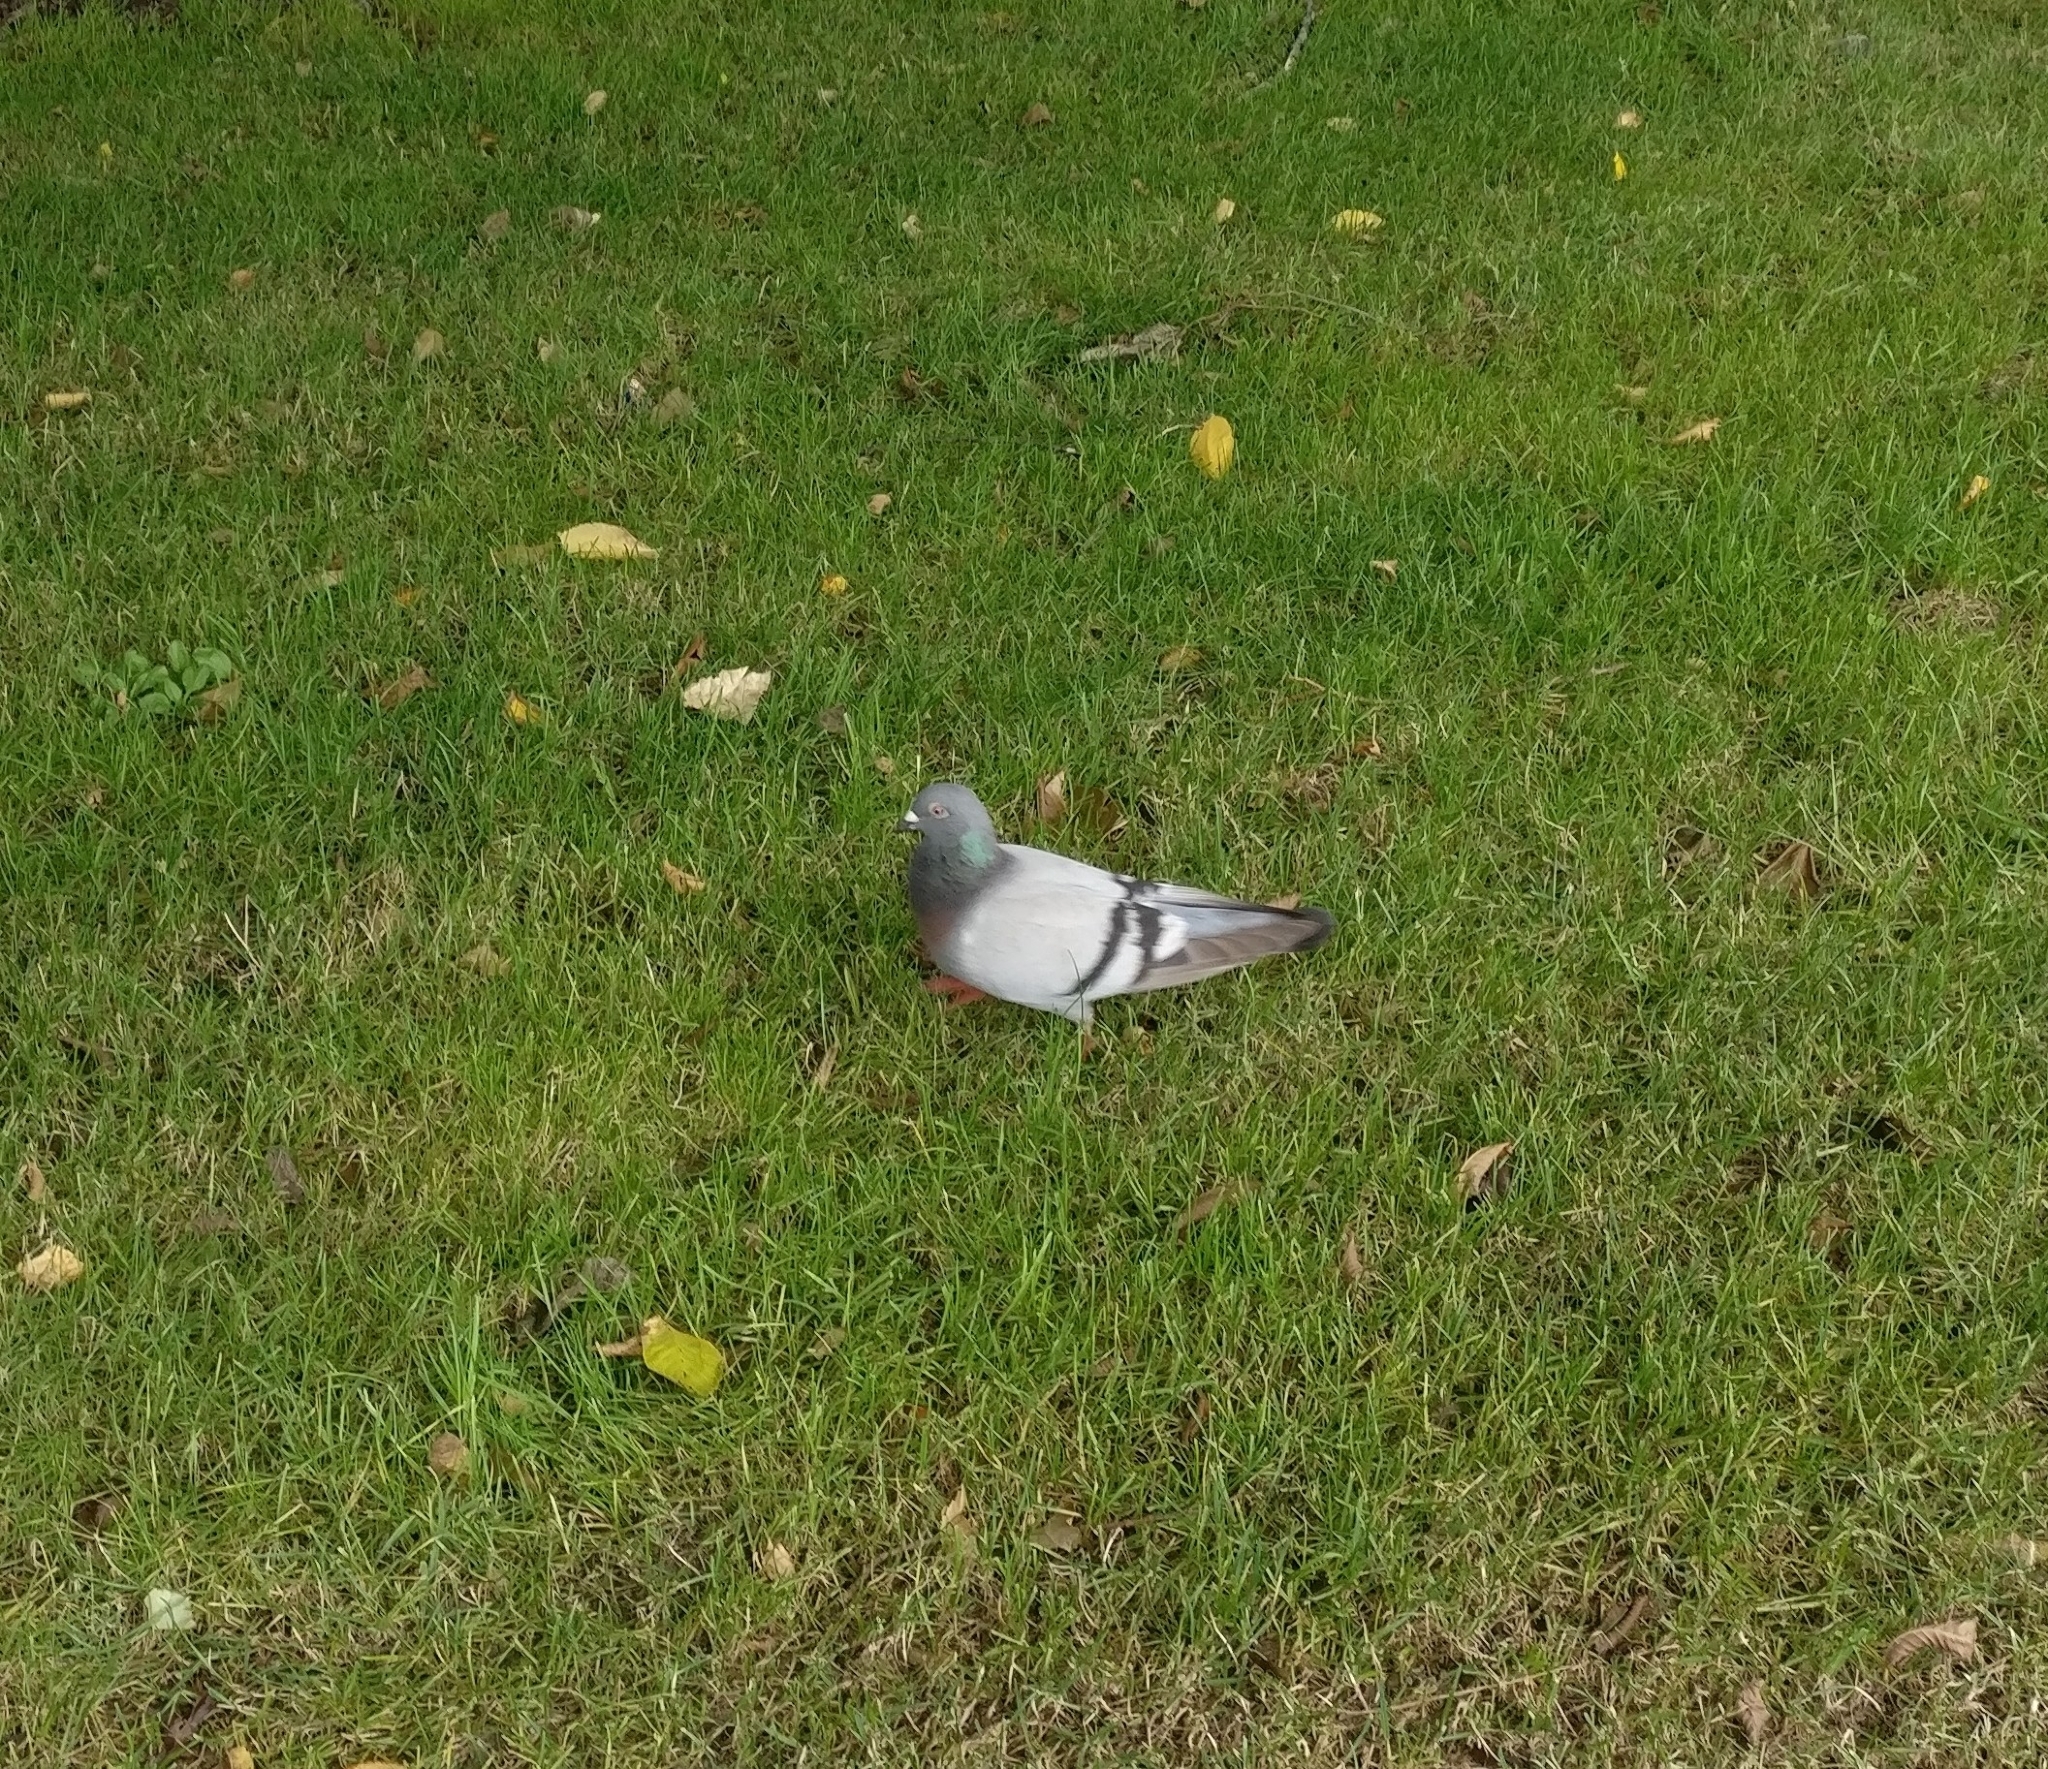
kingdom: Animalia
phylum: Chordata
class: Aves
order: Columbiformes
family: Columbidae
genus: Columba
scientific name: Columba livia
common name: Rock pigeon
